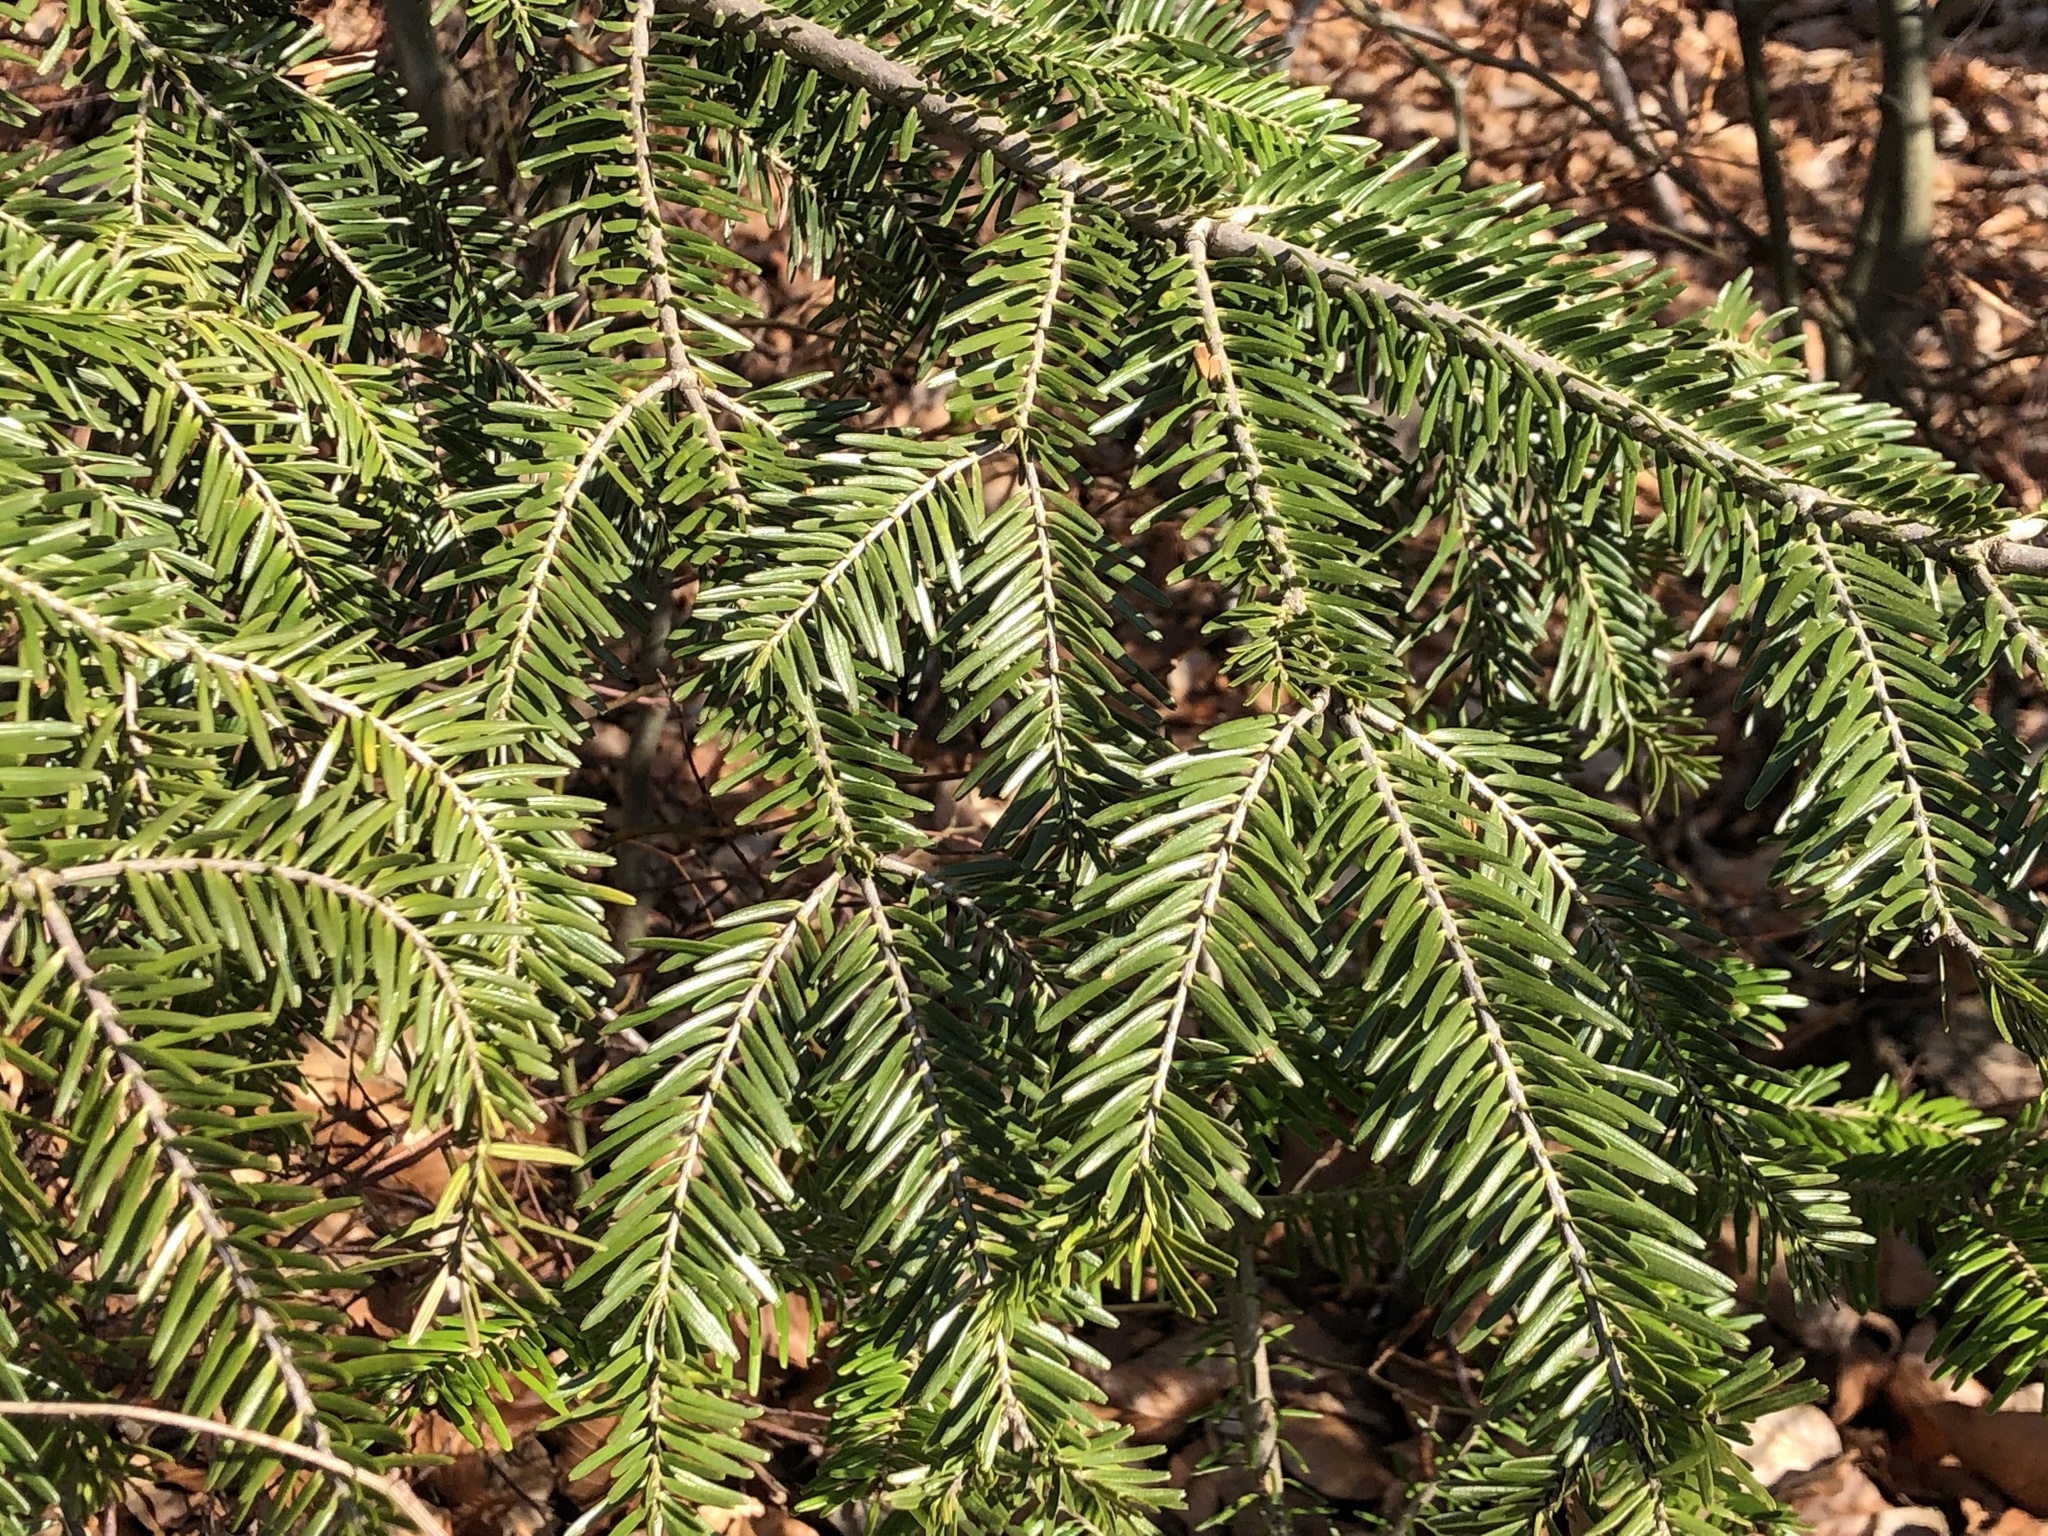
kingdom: Plantae
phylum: Tracheophyta
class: Pinopsida
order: Pinales
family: Pinaceae
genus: Abies
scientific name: Abies alba
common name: Silver fir
